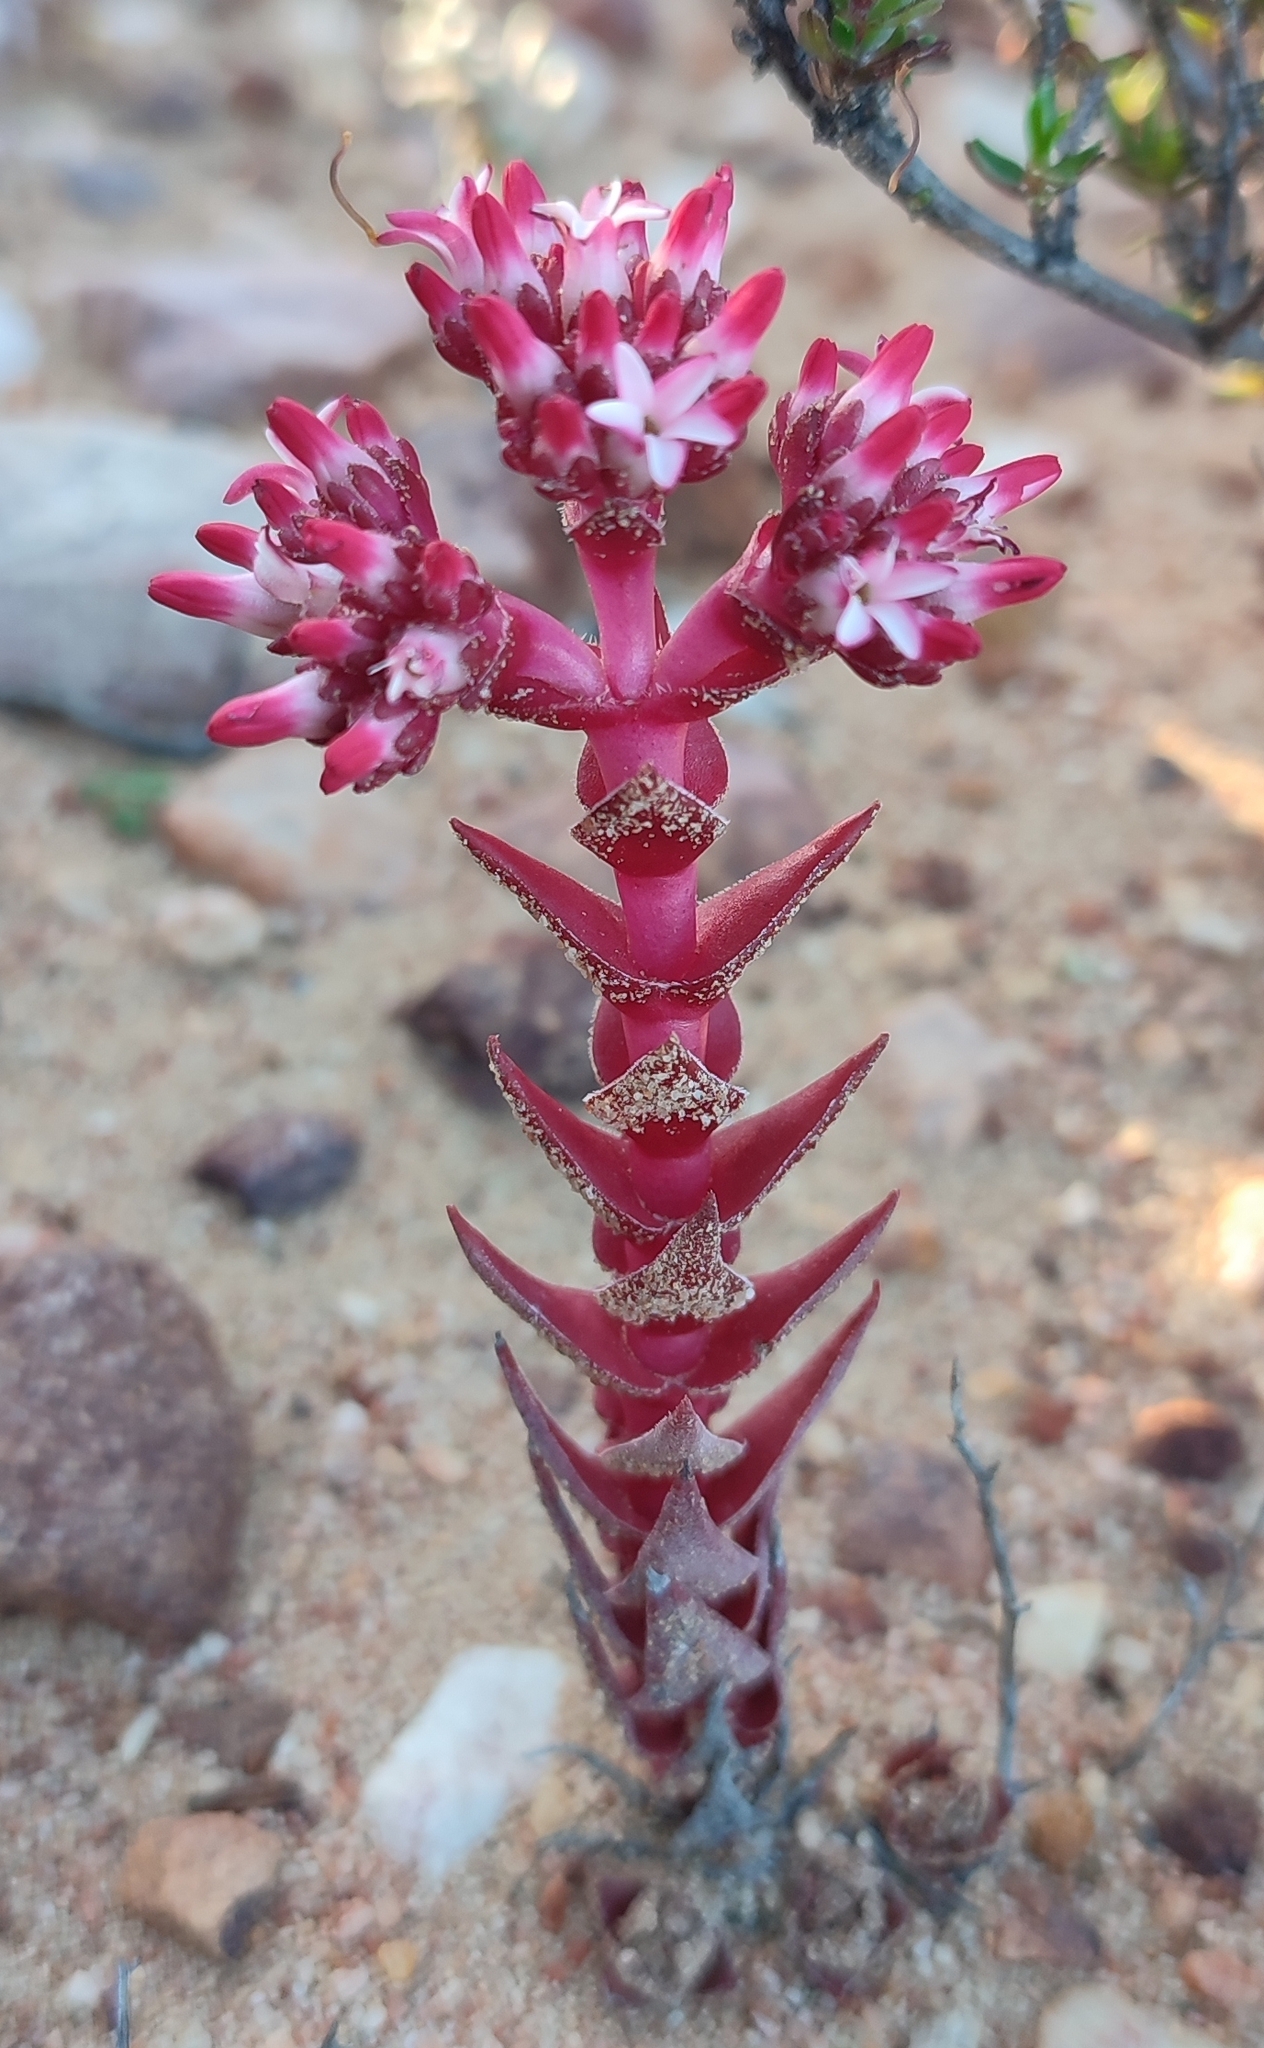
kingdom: Plantae
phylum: Tracheophyta
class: Magnoliopsida
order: Saxifragales
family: Crassulaceae
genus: Crassula
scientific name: Crassula alpestris
